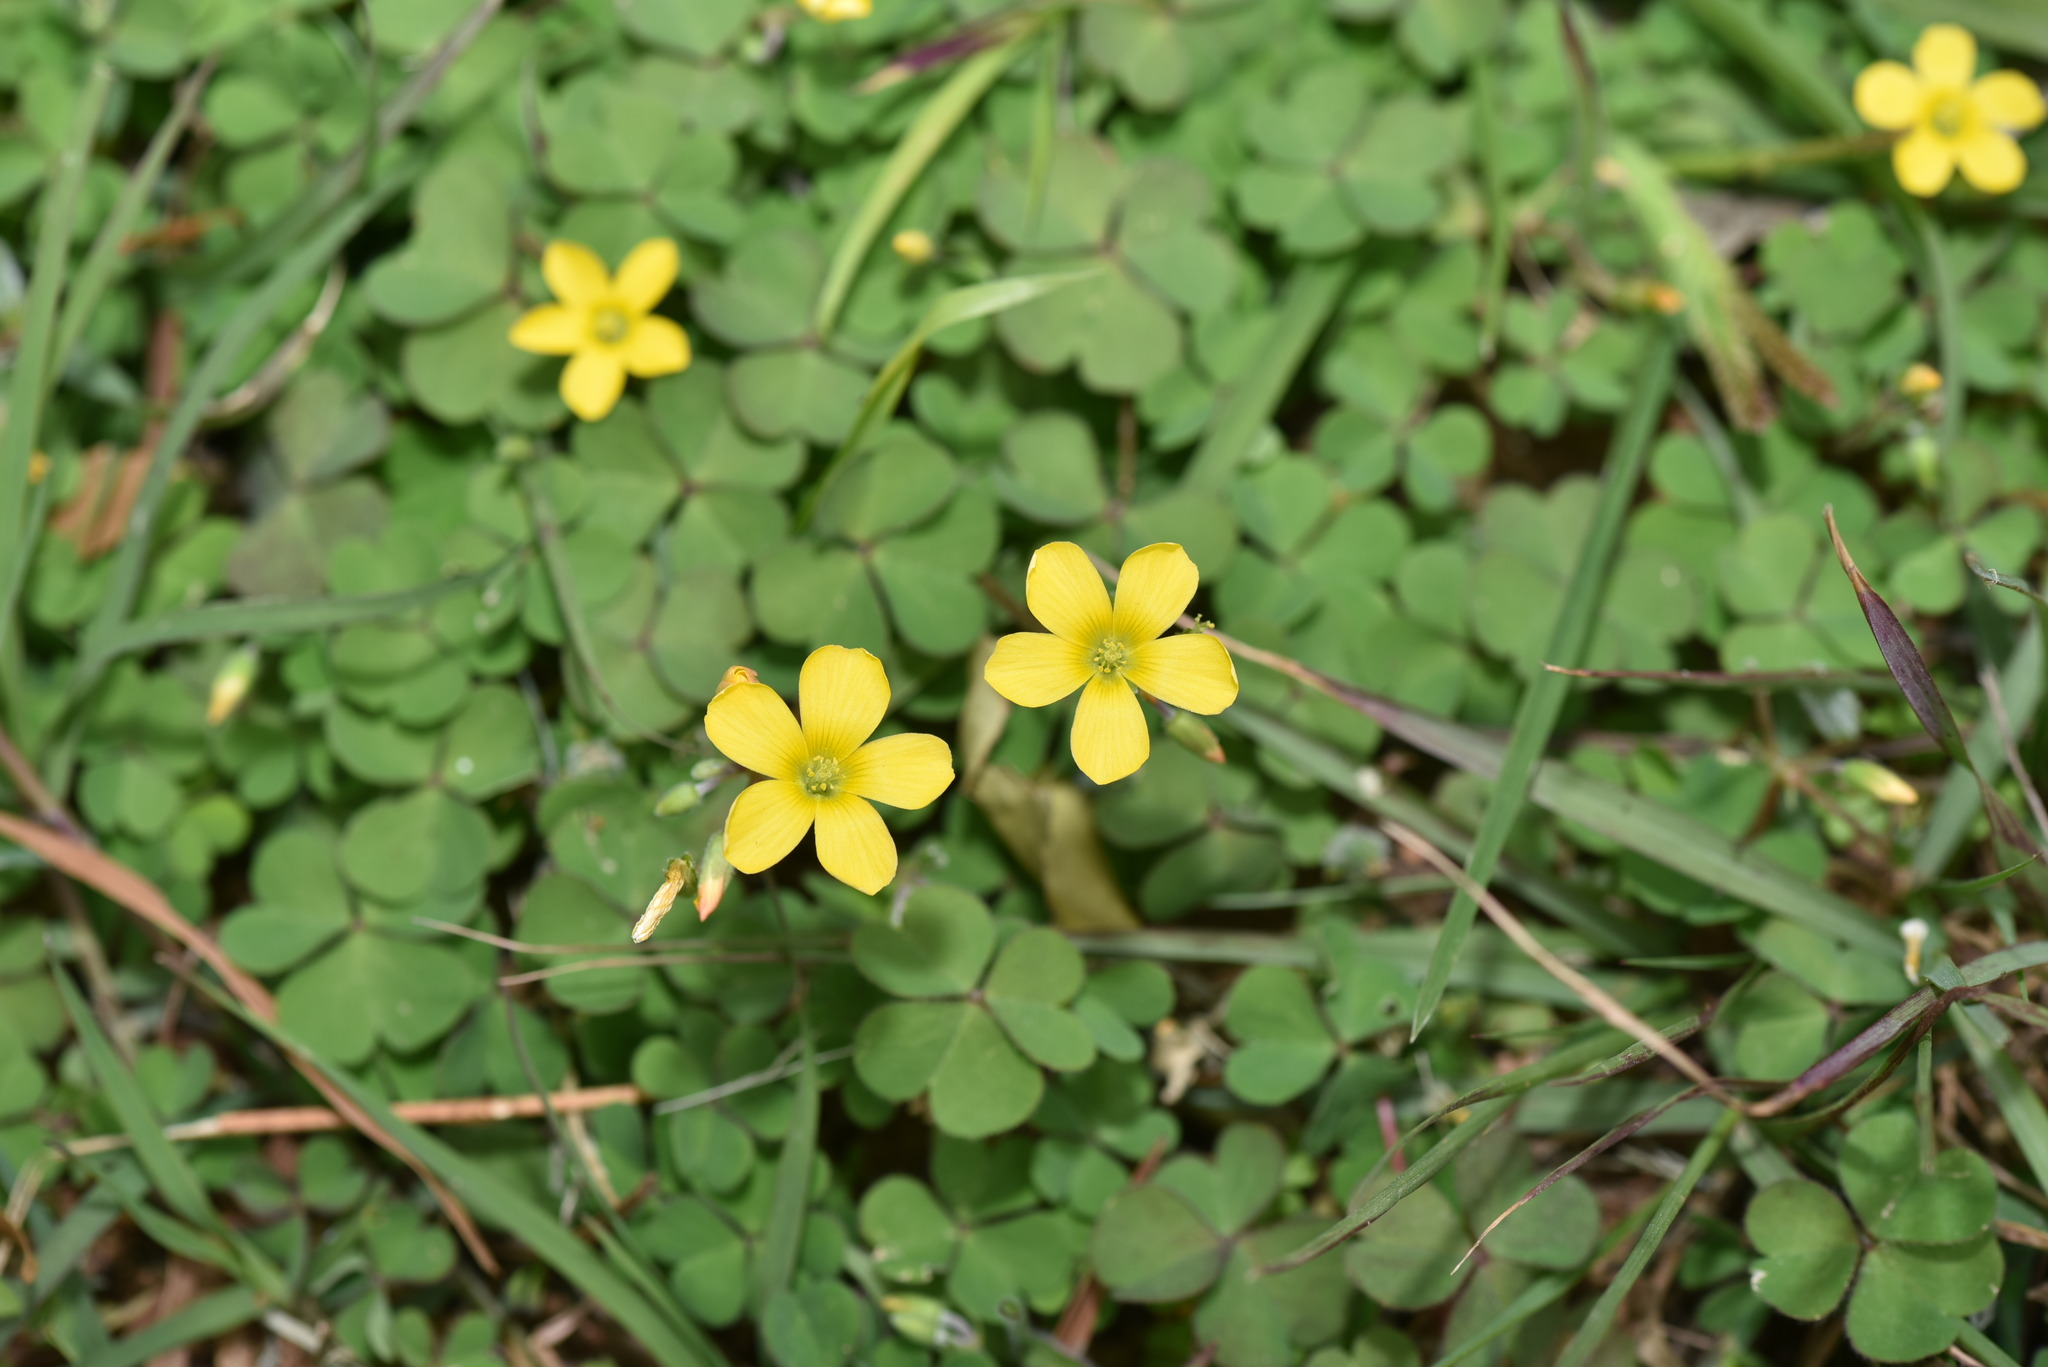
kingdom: Plantae
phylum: Tracheophyta
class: Magnoliopsida
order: Oxalidales
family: Oxalidaceae
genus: Oxalis
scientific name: Oxalis corniculata
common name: Procumbent yellow-sorrel
